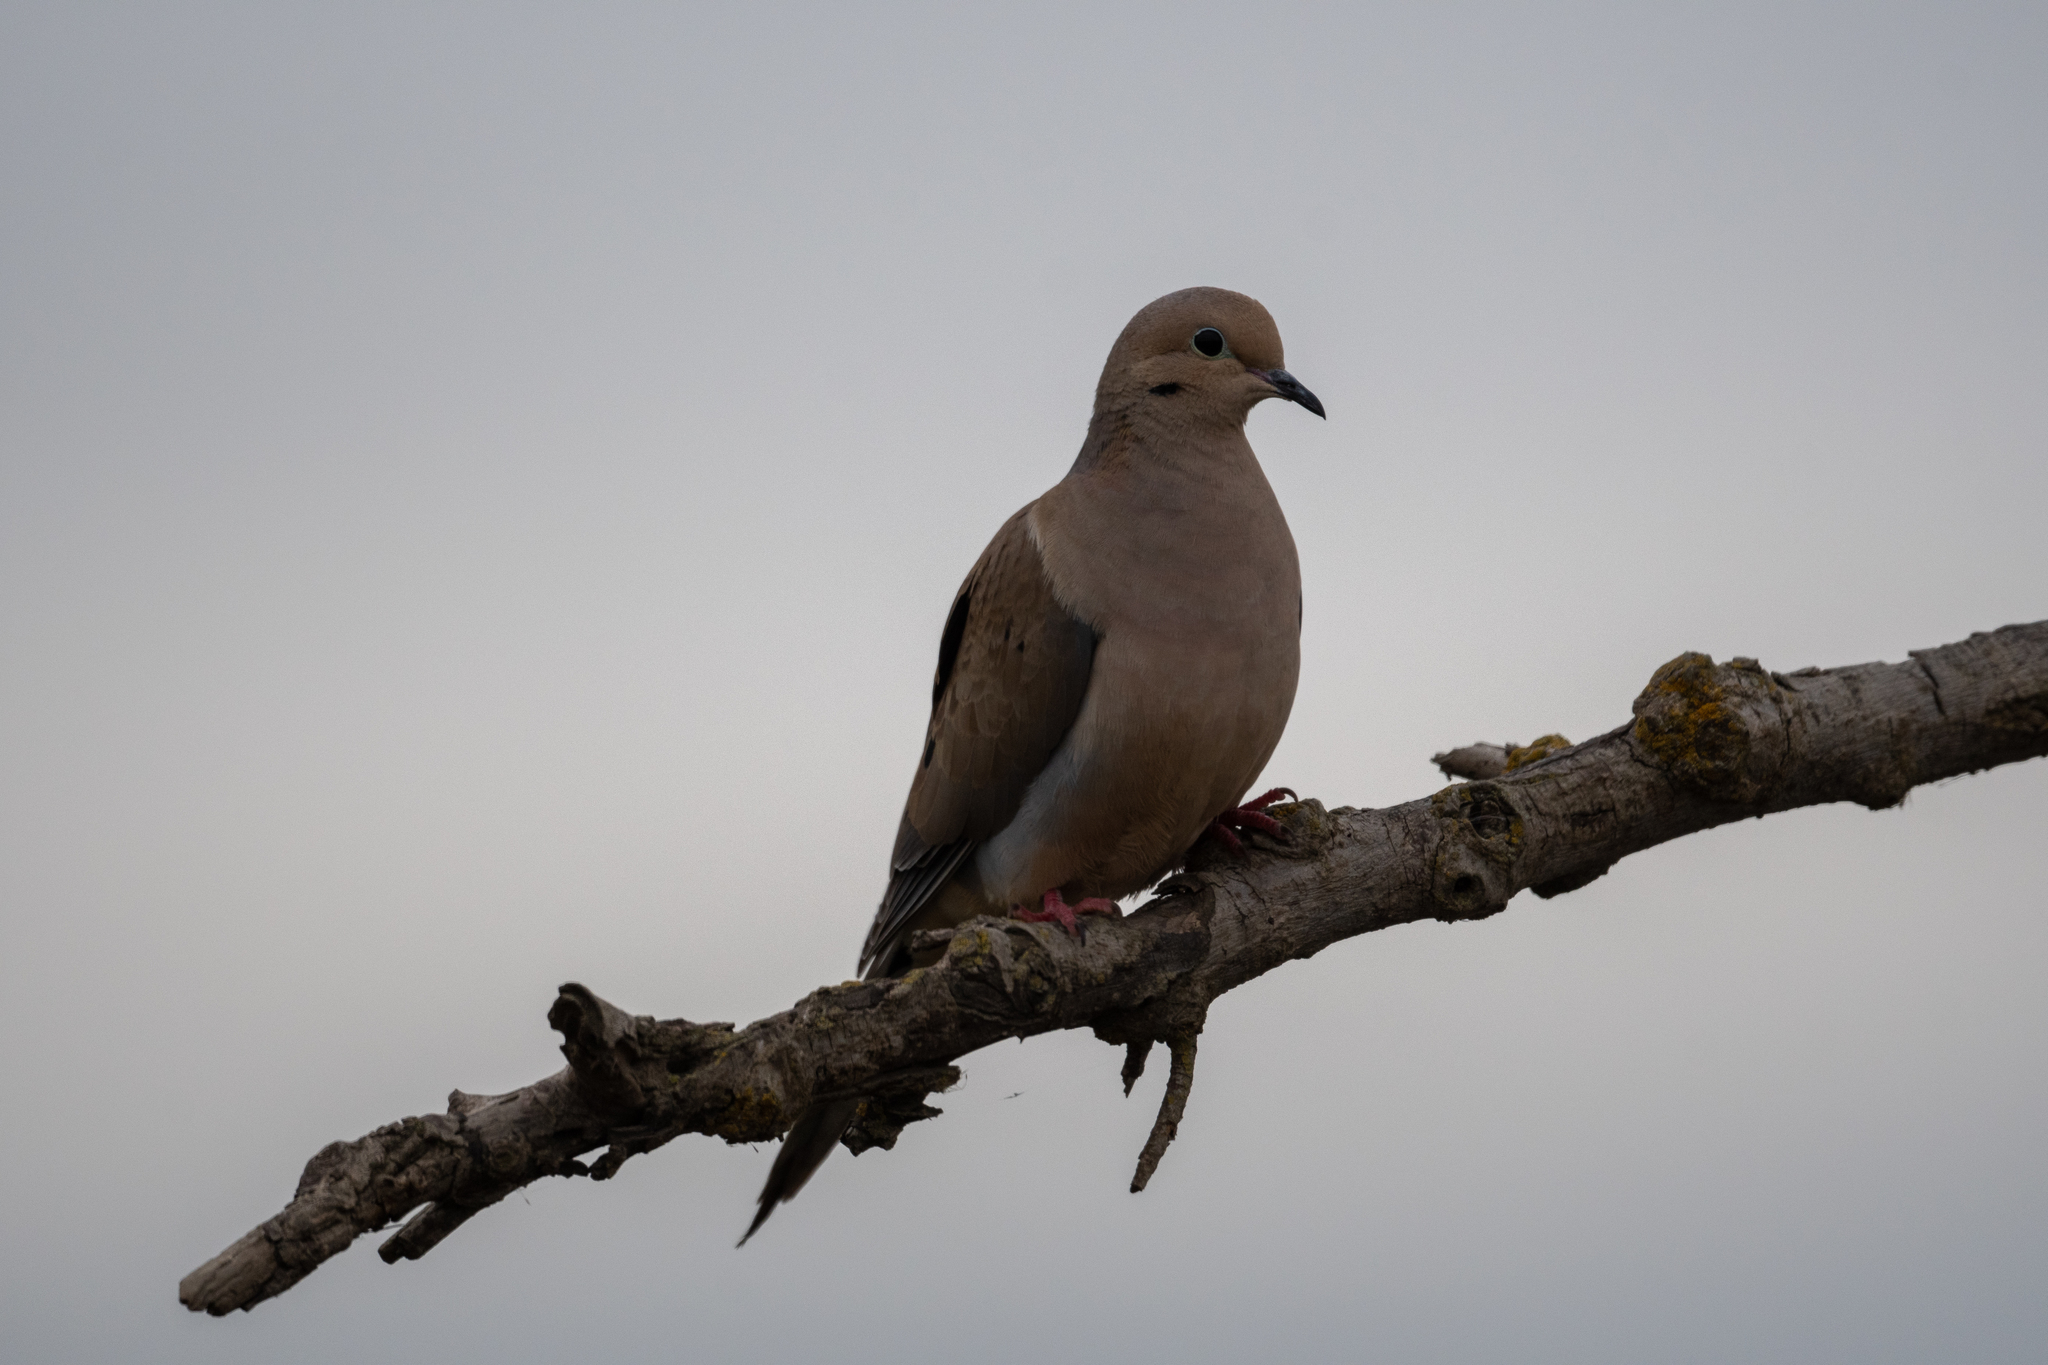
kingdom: Animalia
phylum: Chordata
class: Aves
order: Columbiformes
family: Columbidae
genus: Zenaida
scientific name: Zenaida macroura
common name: Mourning dove
